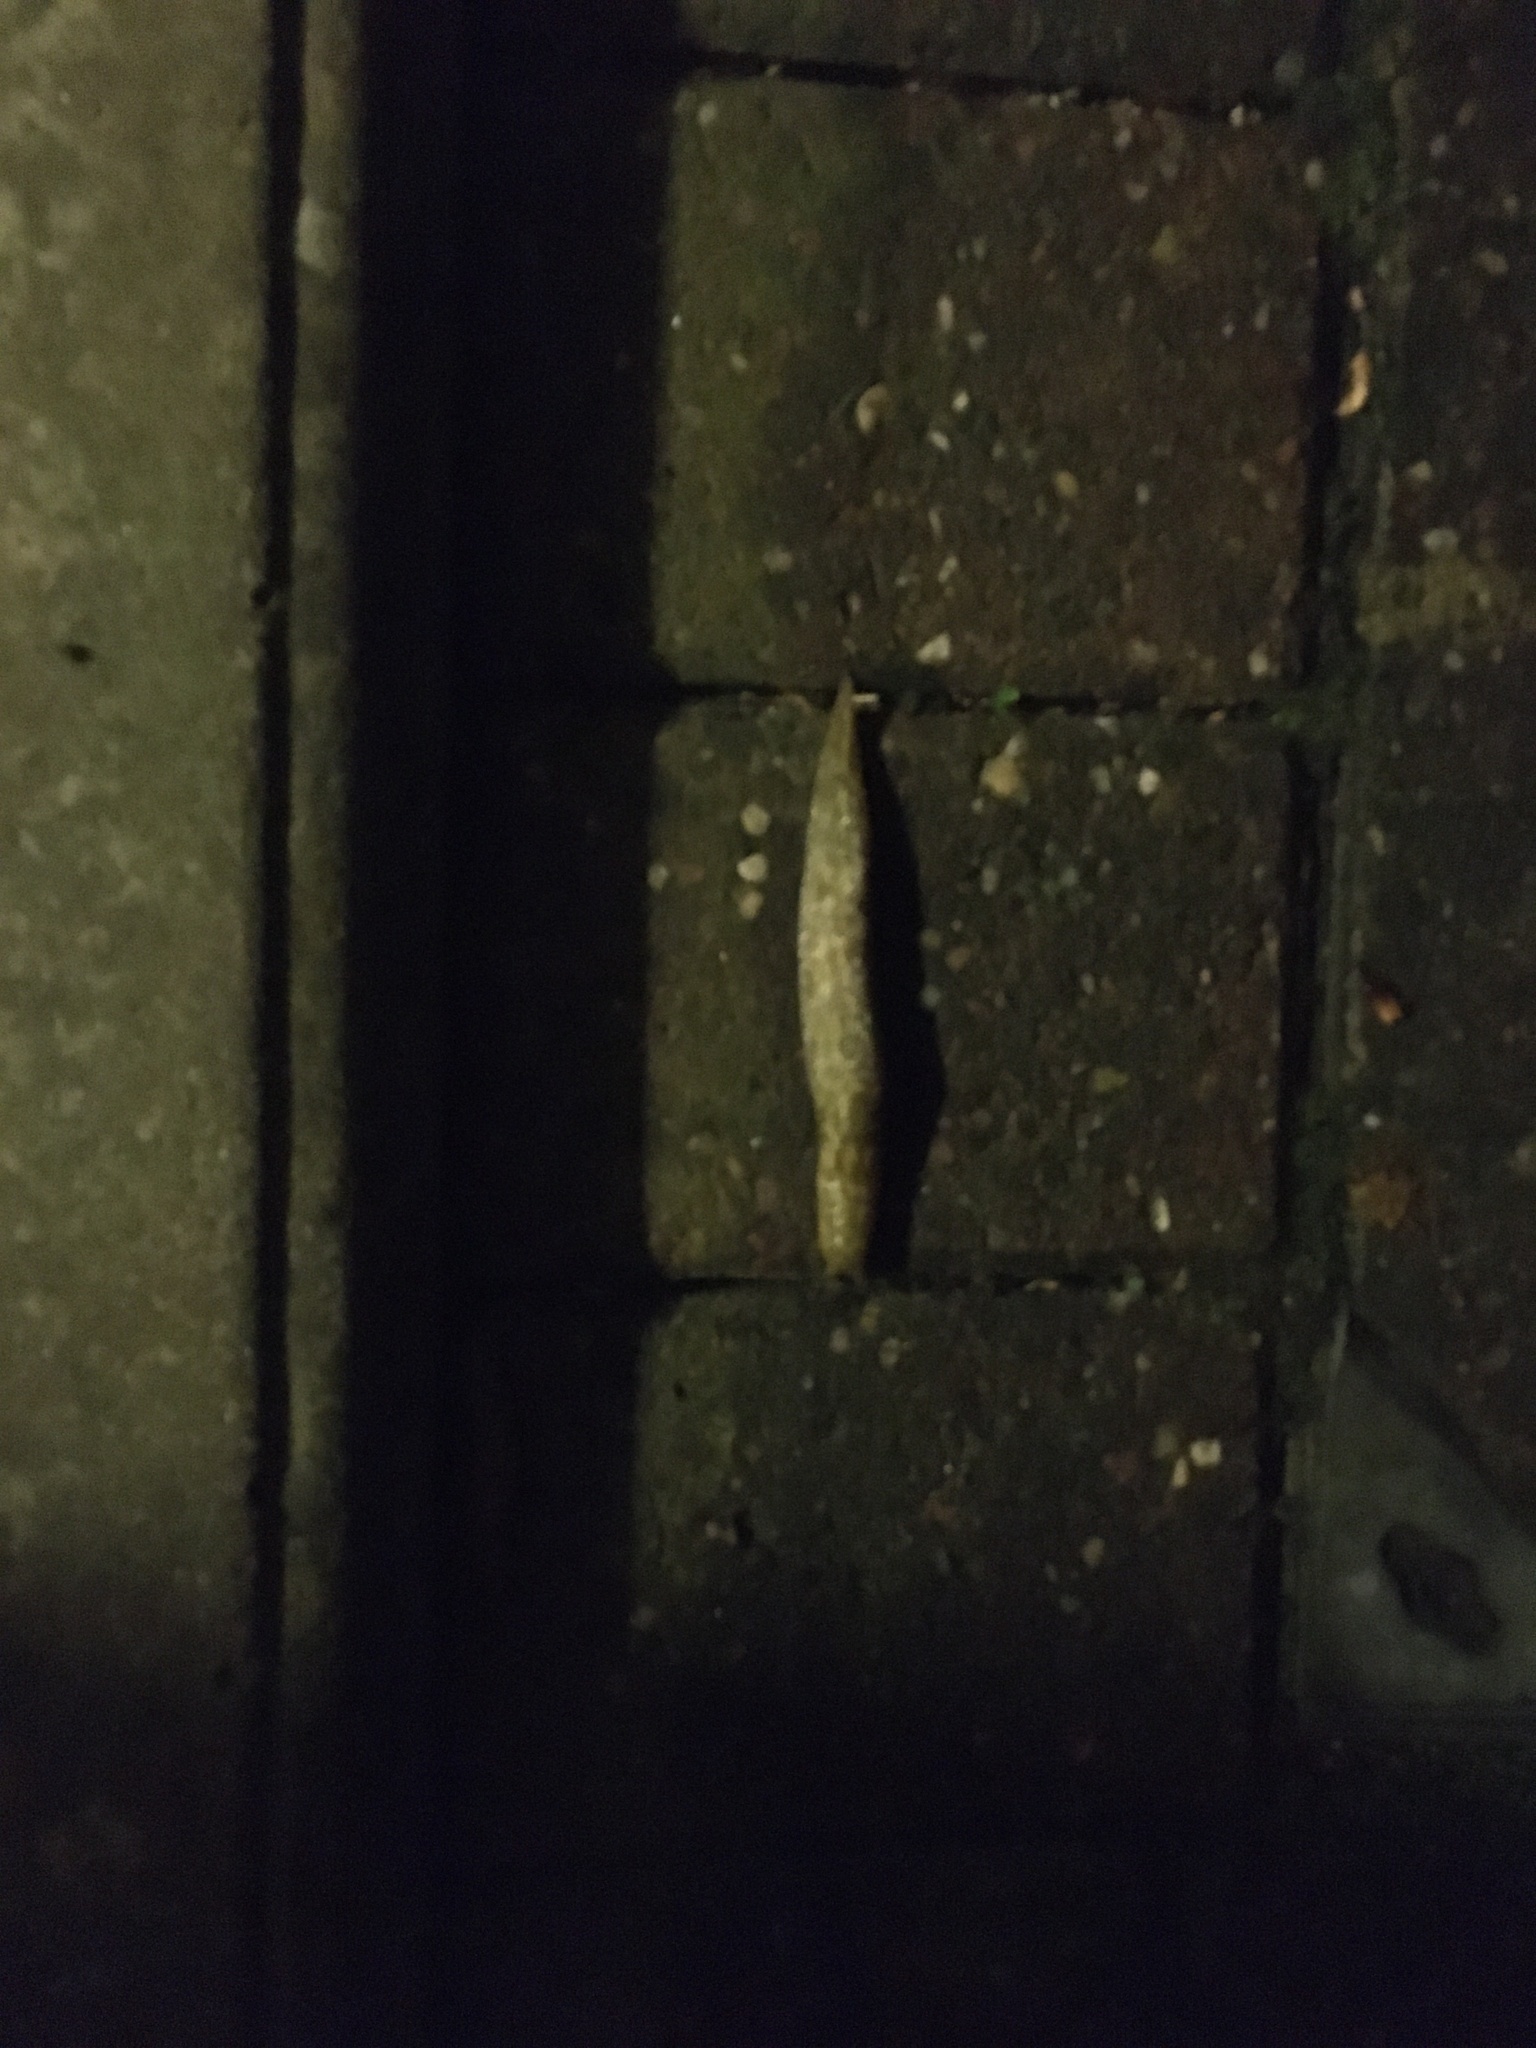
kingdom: Animalia
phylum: Mollusca
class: Gastropoda
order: Stylommatophora
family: Limacidae
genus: Limacus
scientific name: Limacus maculatus
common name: Irish yellow slug
